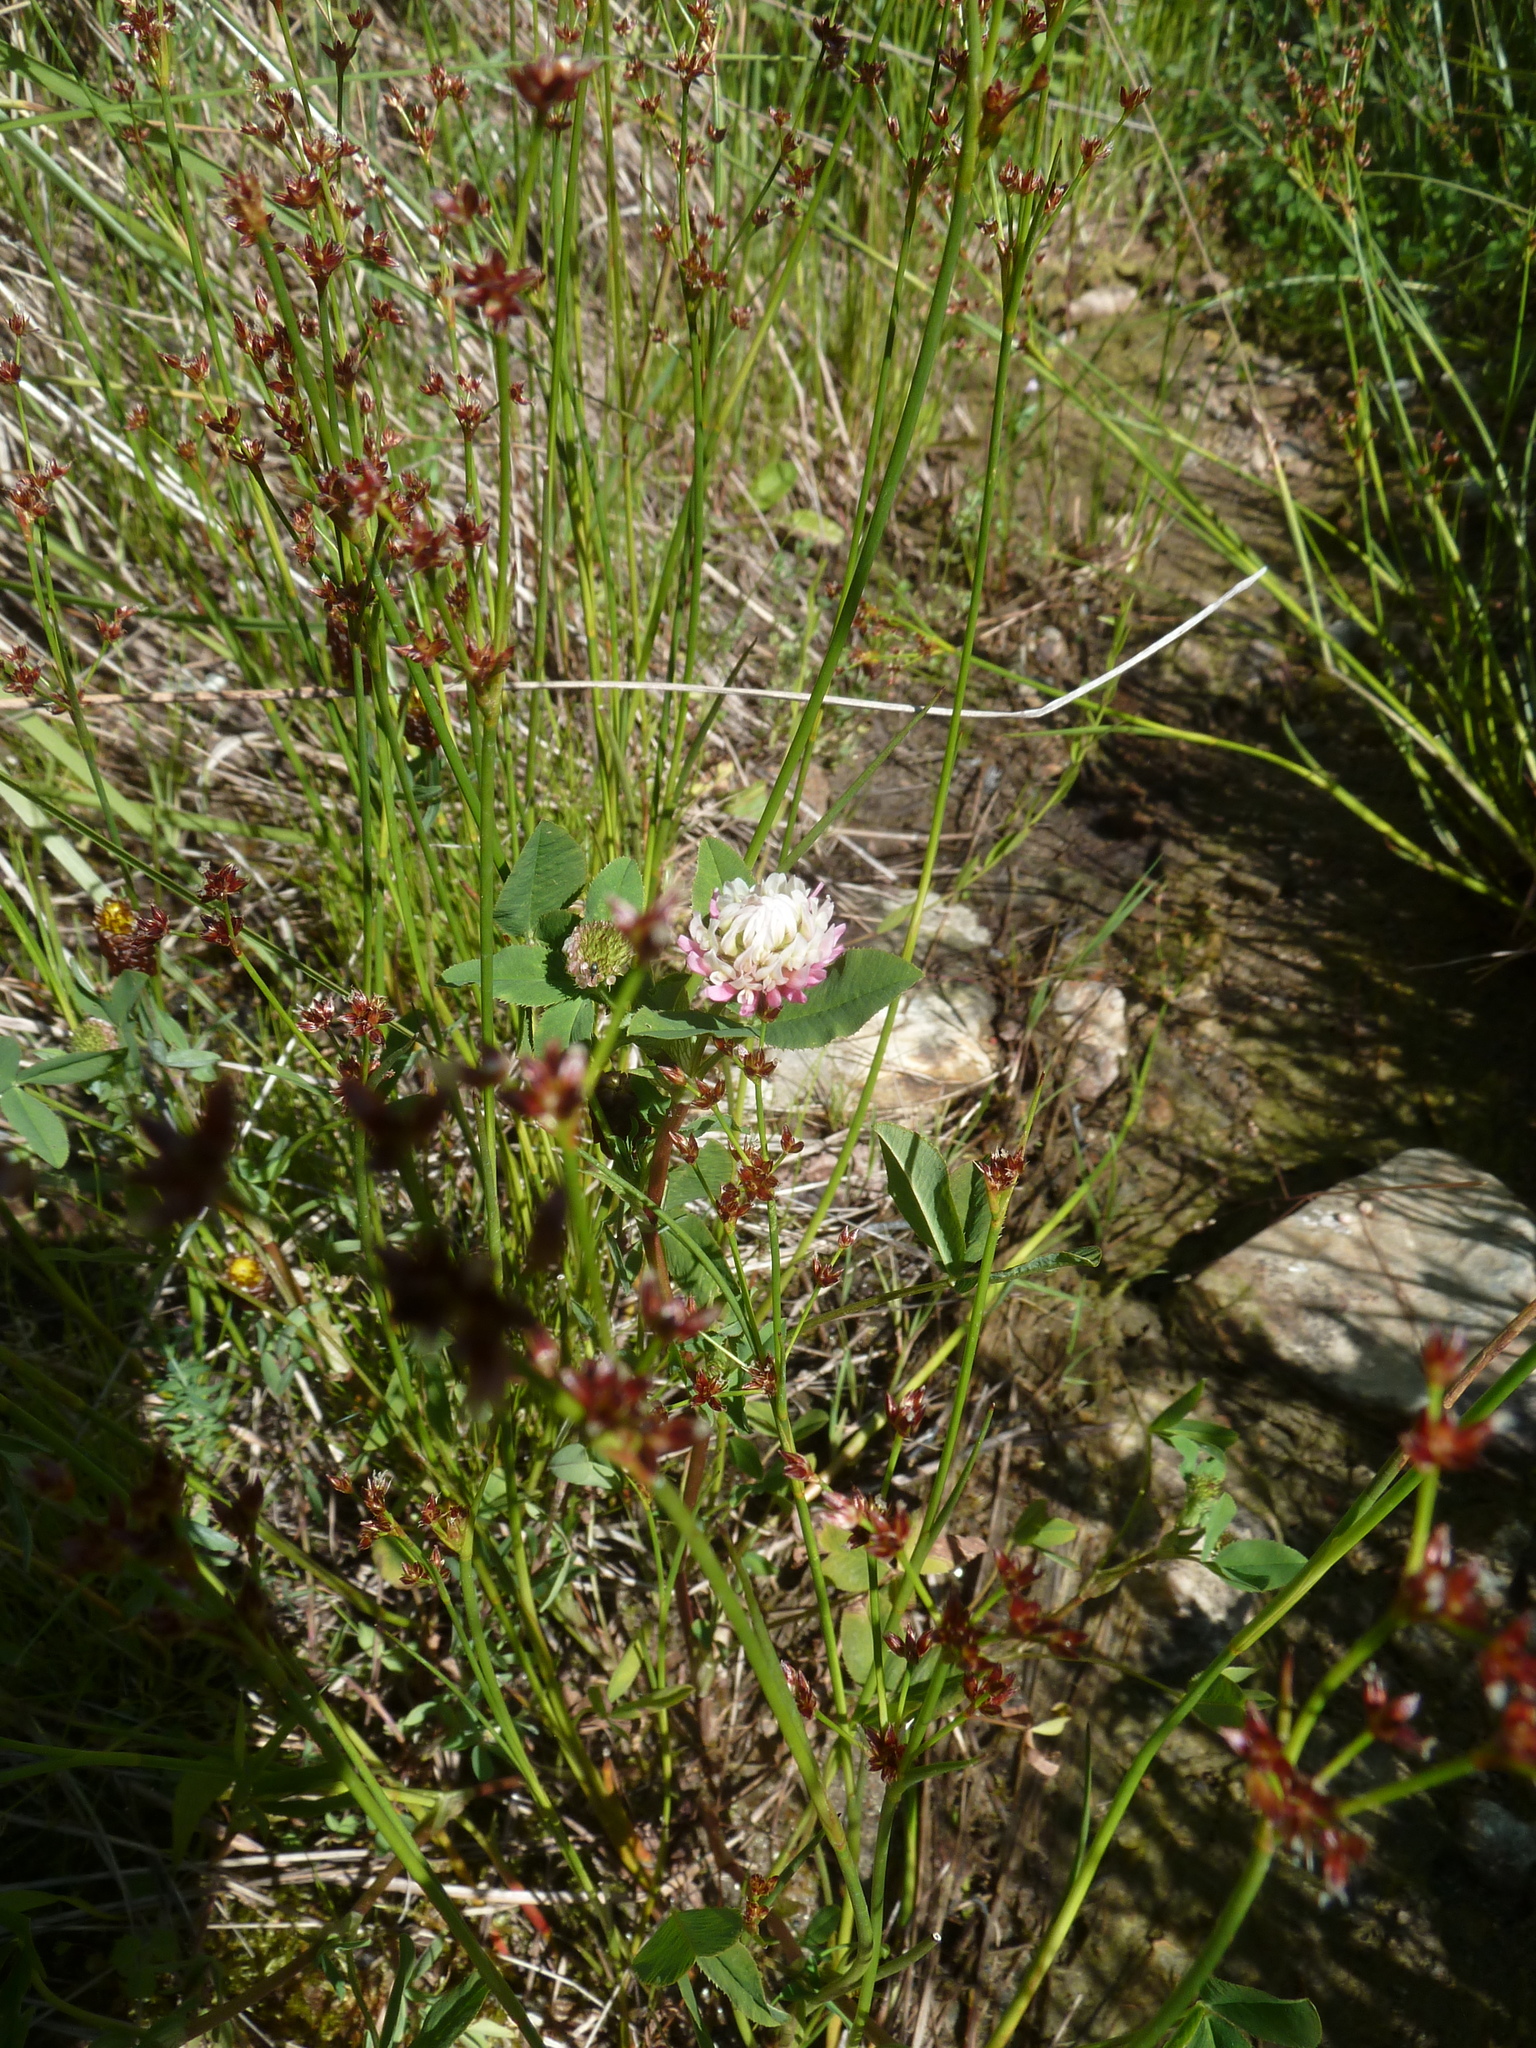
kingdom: Plantae
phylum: Tracheophyta
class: Magnoliopsida
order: Fabales
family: Fabaceae
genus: Trifolium
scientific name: Trifolium hybridum
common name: Alsike clover
